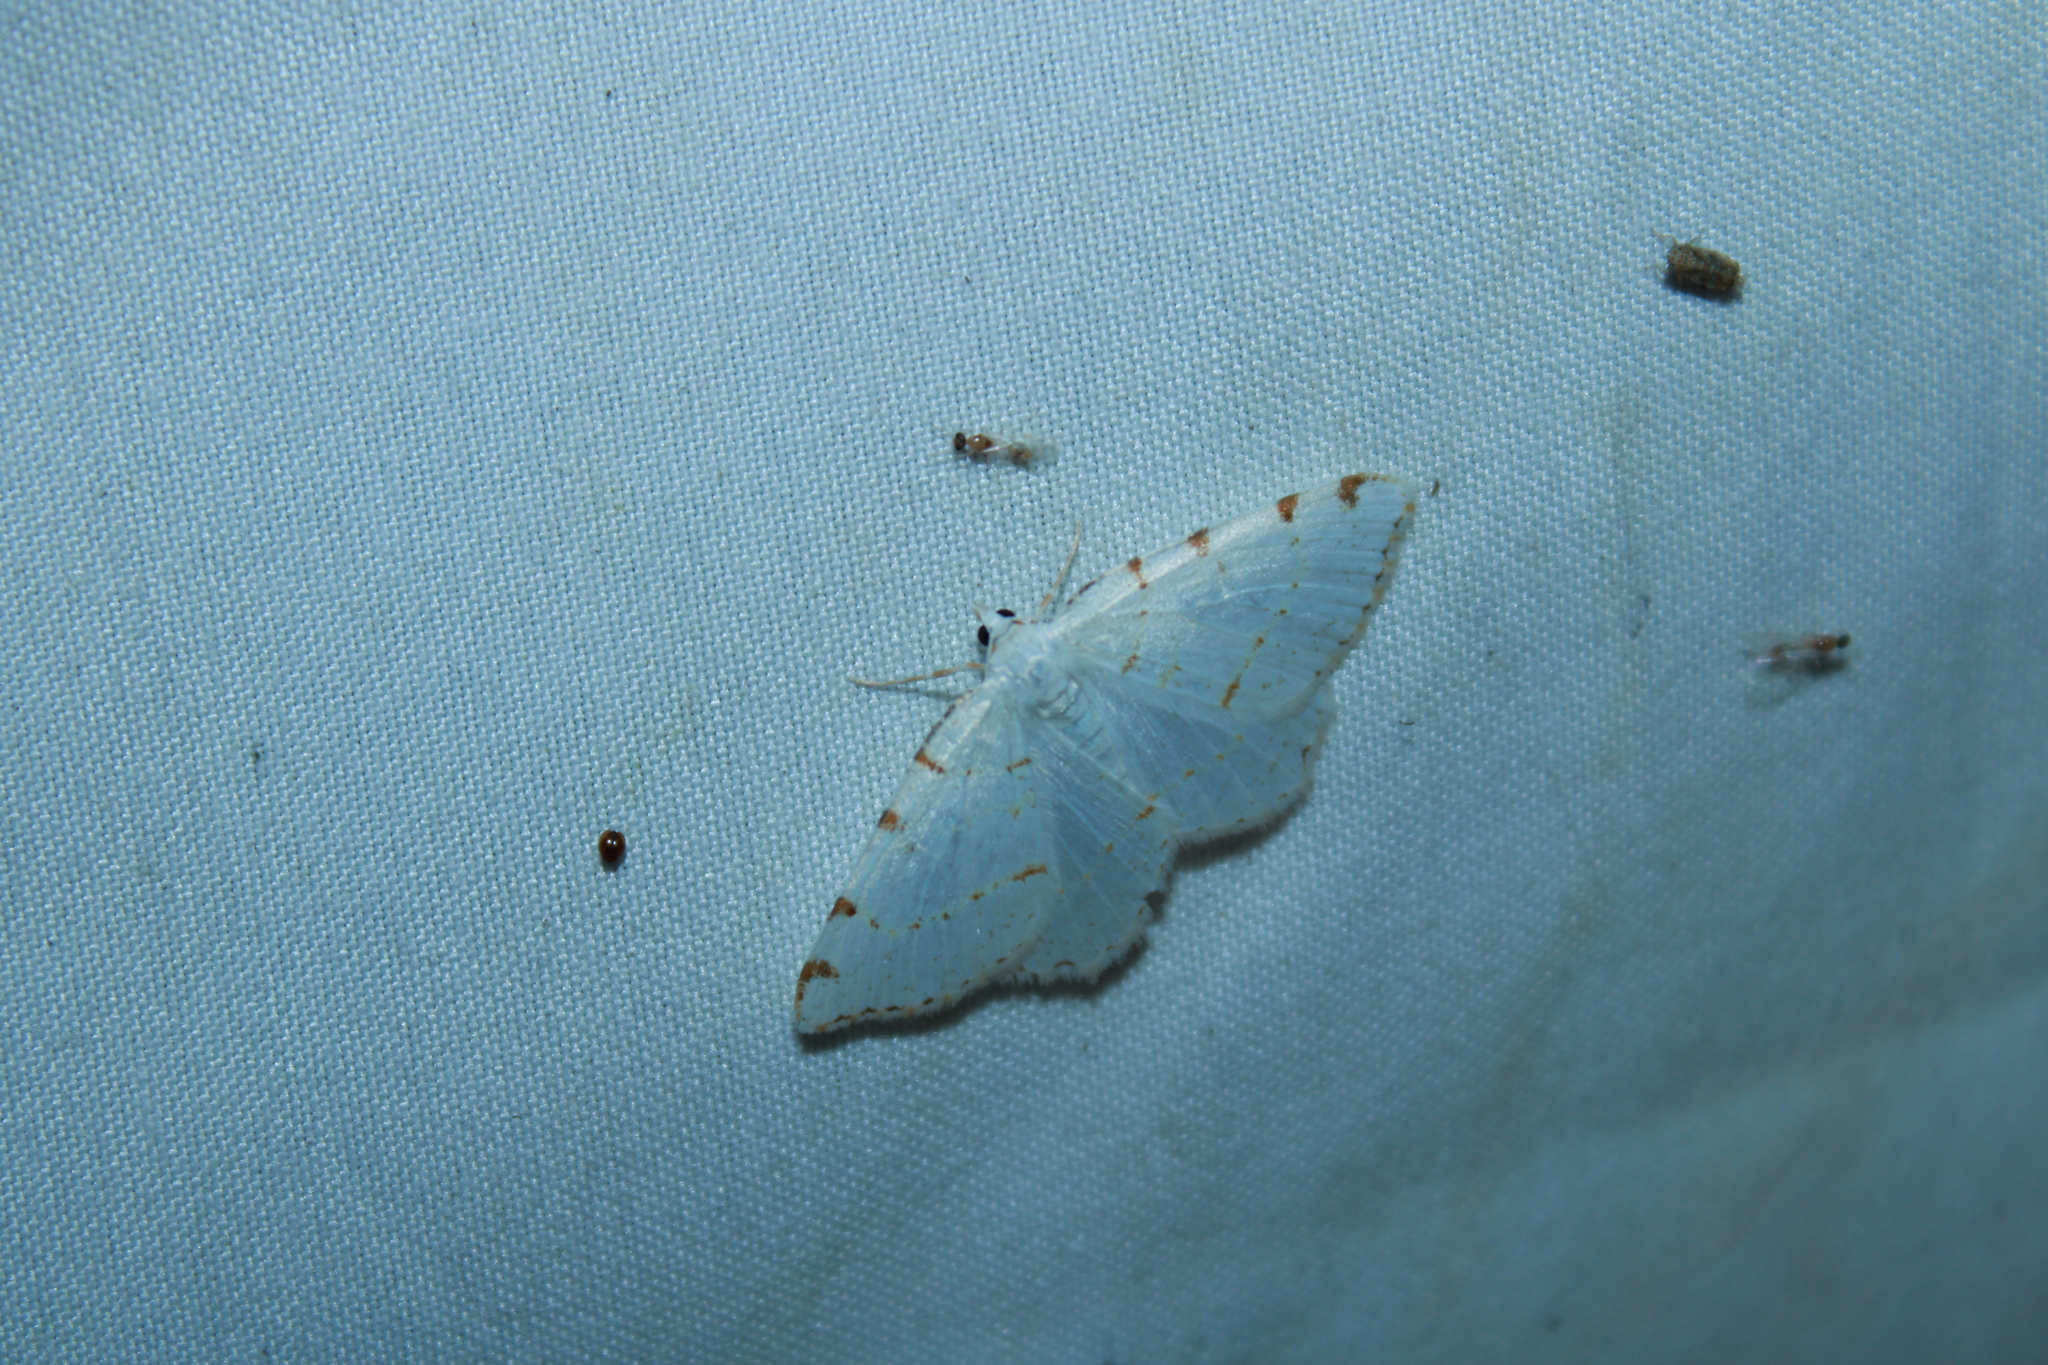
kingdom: Animalia
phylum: Arthropoda
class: Insecta
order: Lepidoptera
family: Geometridae
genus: Macaria
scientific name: Macaria pustularia
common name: Lesser maple spanworm moth
